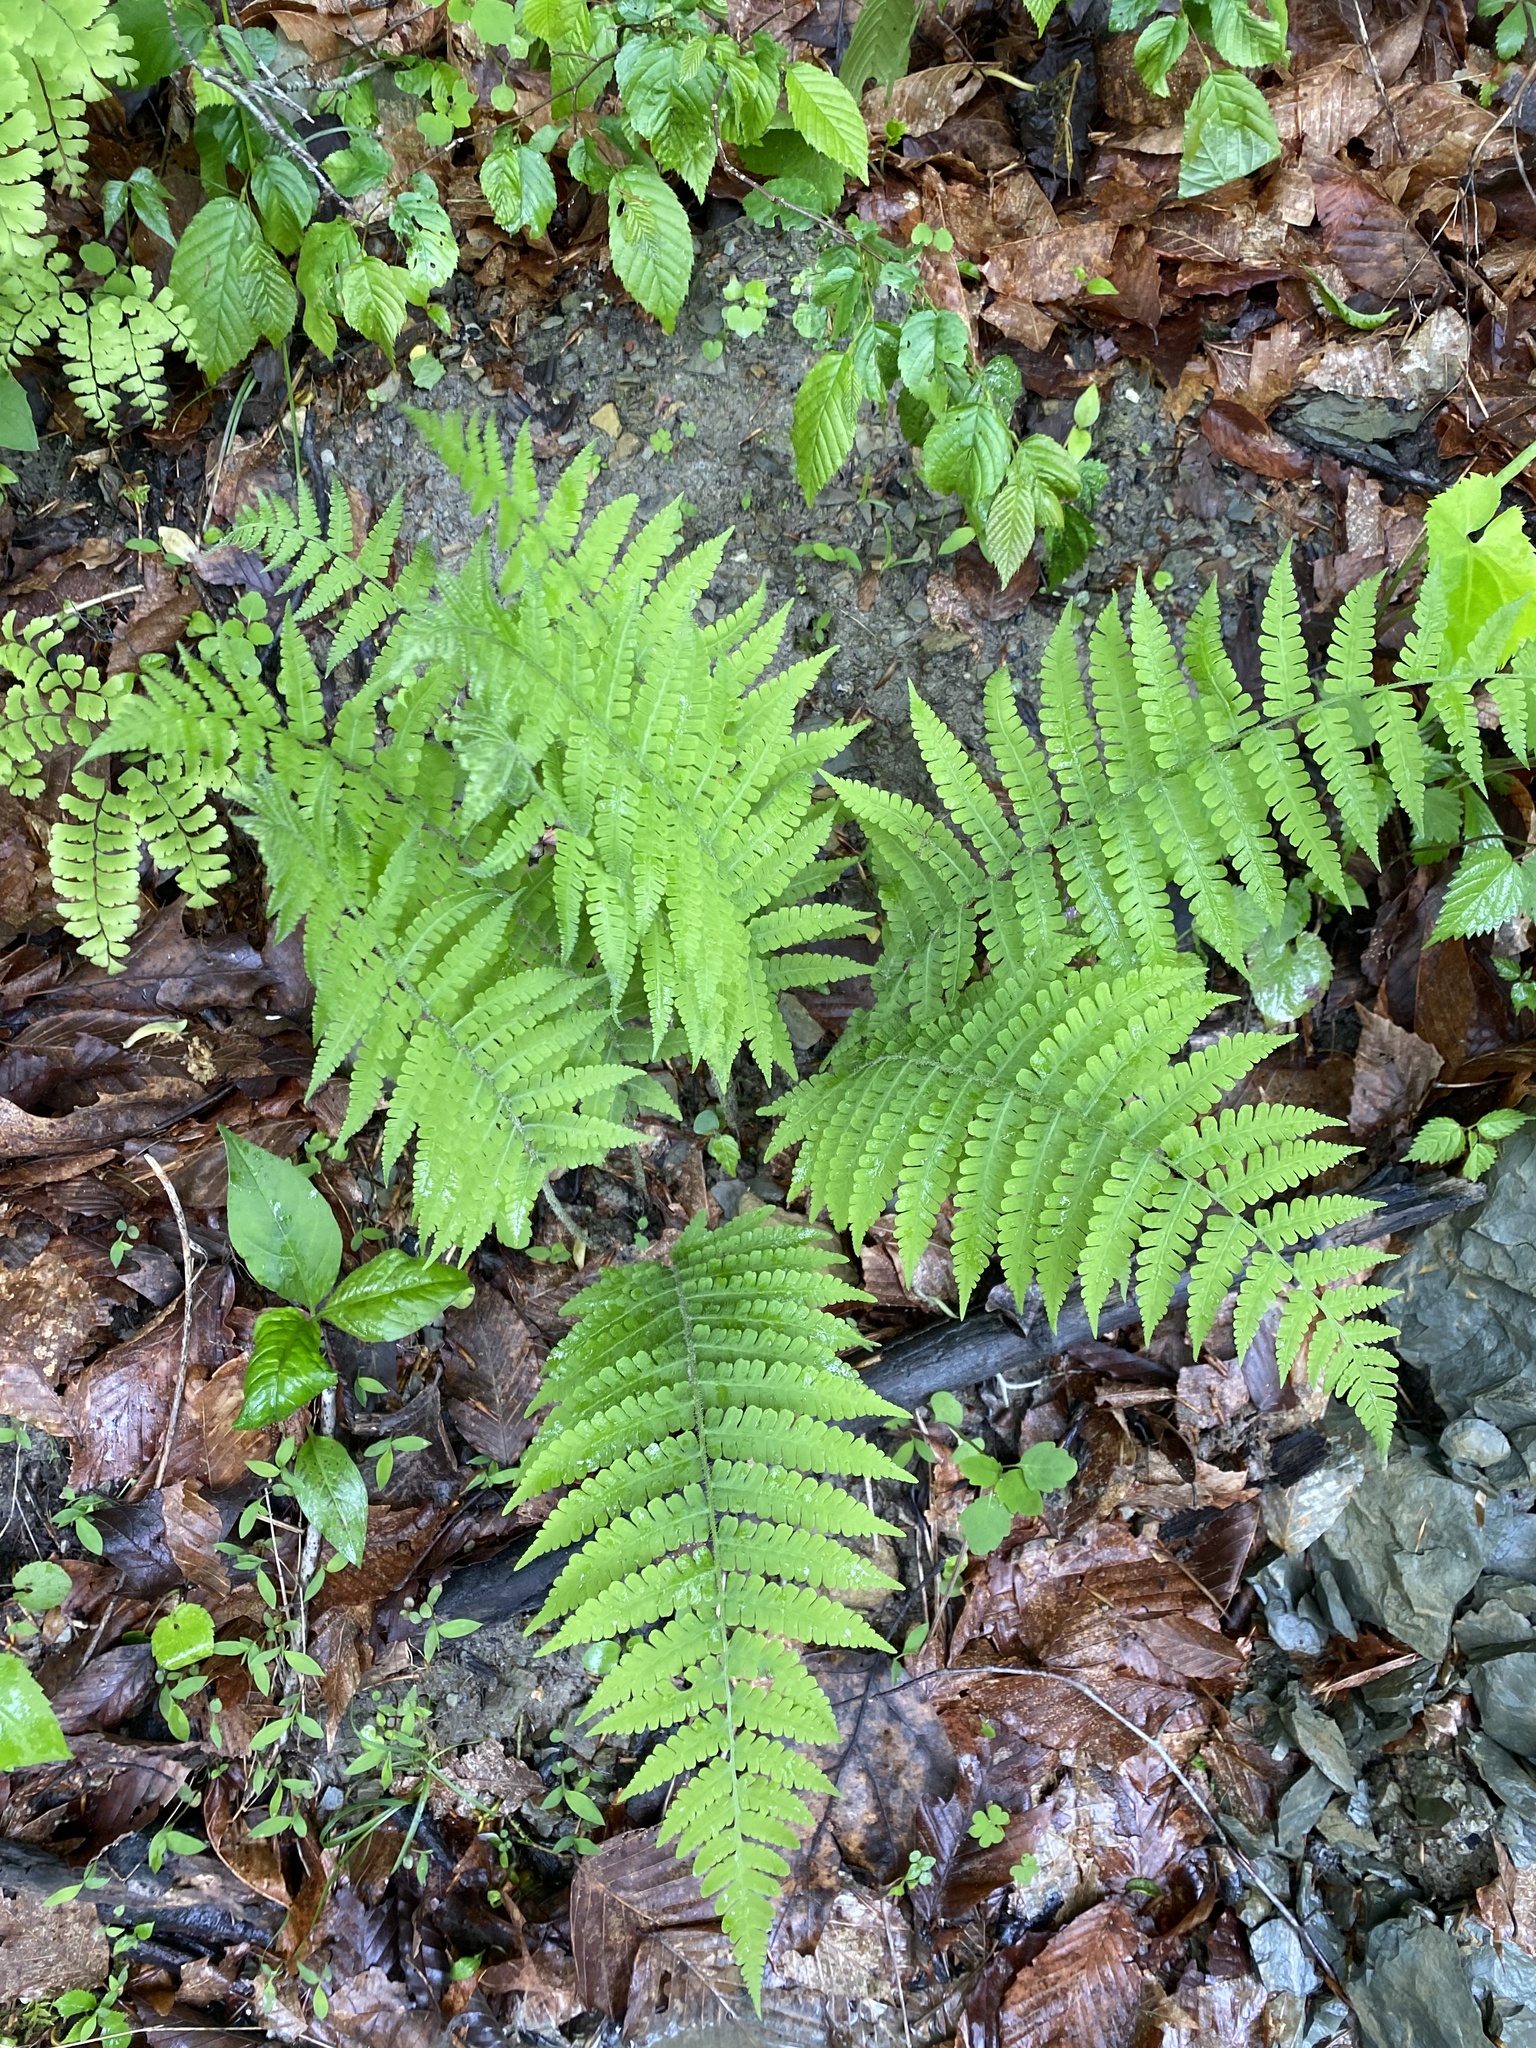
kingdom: Plantae
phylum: Tracheophyta
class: Polypodiopsida
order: Polypodiales
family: Athyriaceae
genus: Deparia
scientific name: Deparia acrostichoides
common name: Silver false spleenwort
